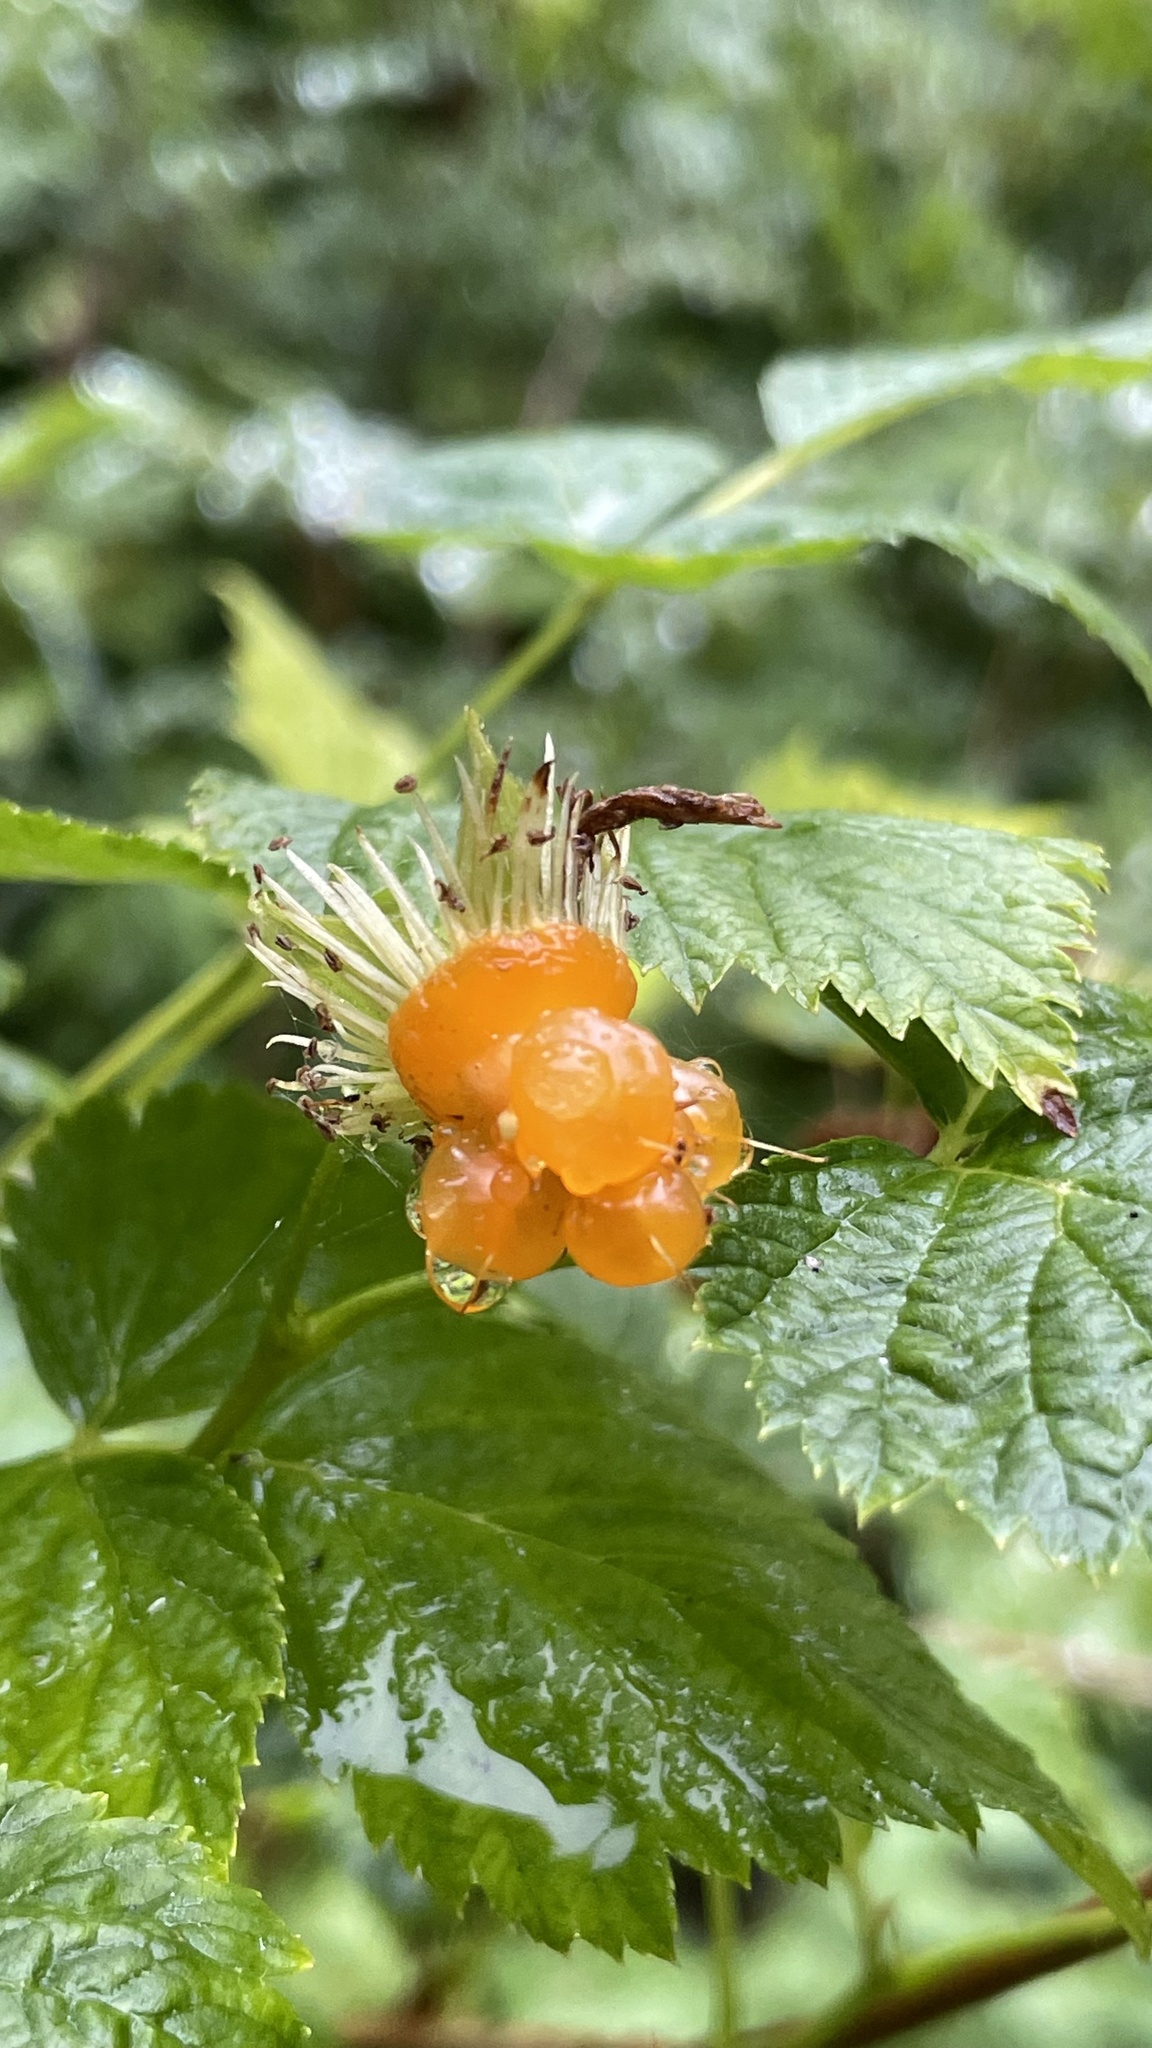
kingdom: Plantae
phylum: Tracheophyta
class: Magnoliopsida
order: Rosales
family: Rosaceae
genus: Rubus
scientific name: Rubus spectabilis
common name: Salmonberry
